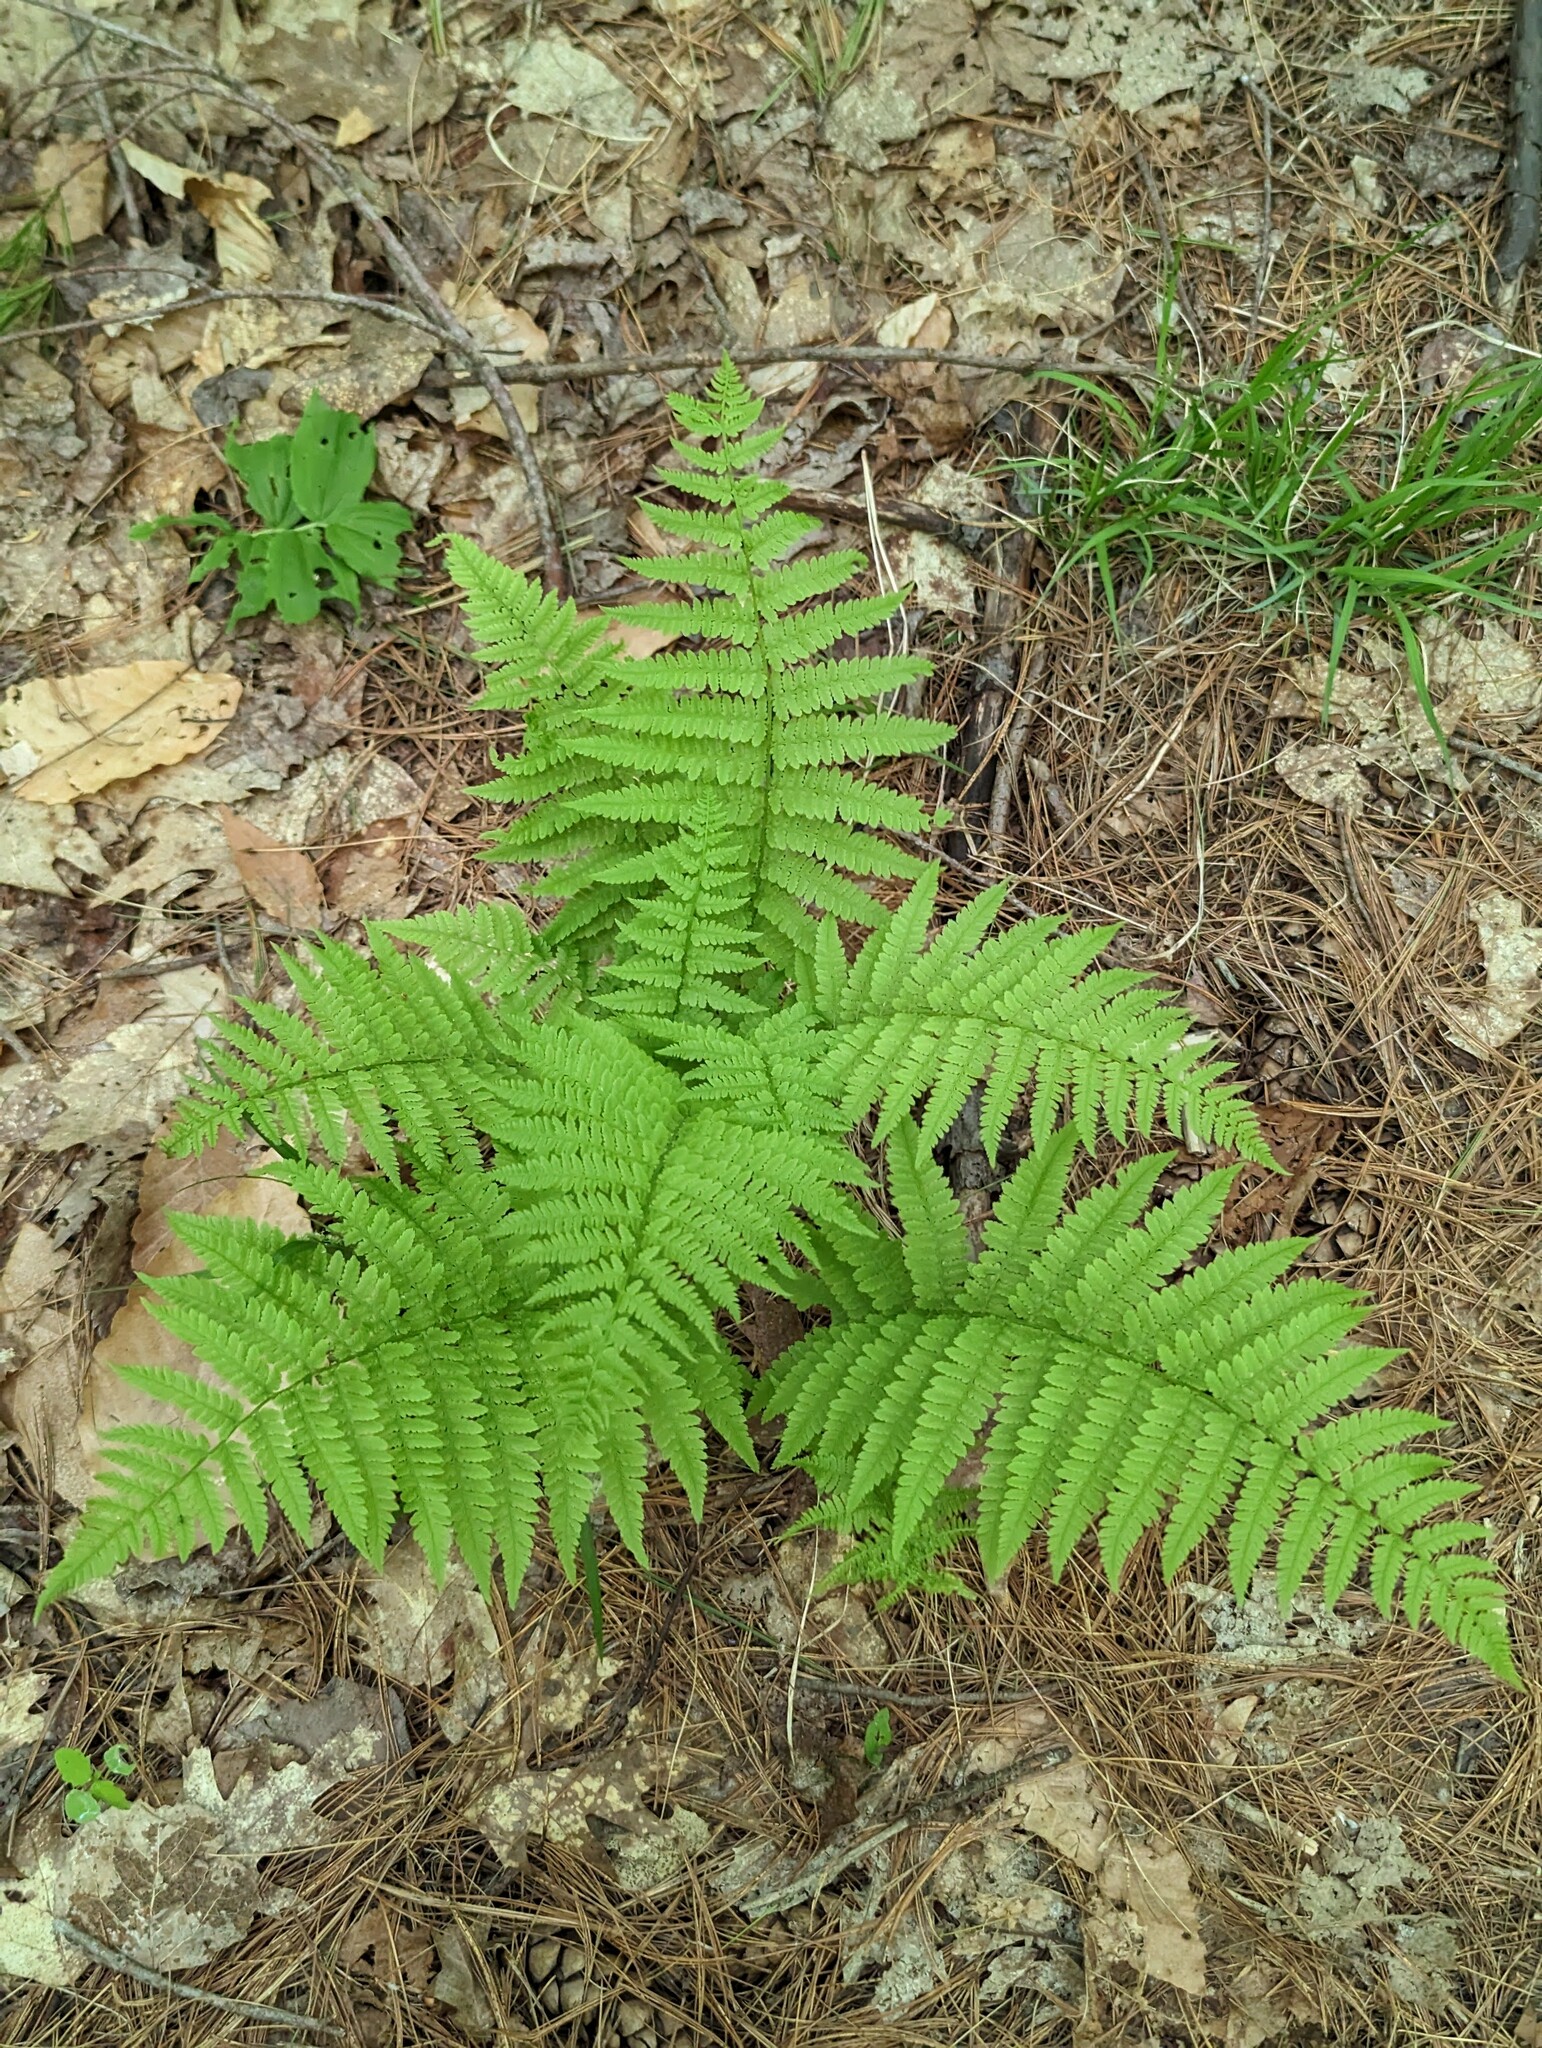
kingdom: Plantae
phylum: Tracheophyta
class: Polypodiopsida
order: Polypodiales
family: Athyriaceae
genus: Athyrium
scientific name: Athyrium angustum
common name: Northern lady fern
